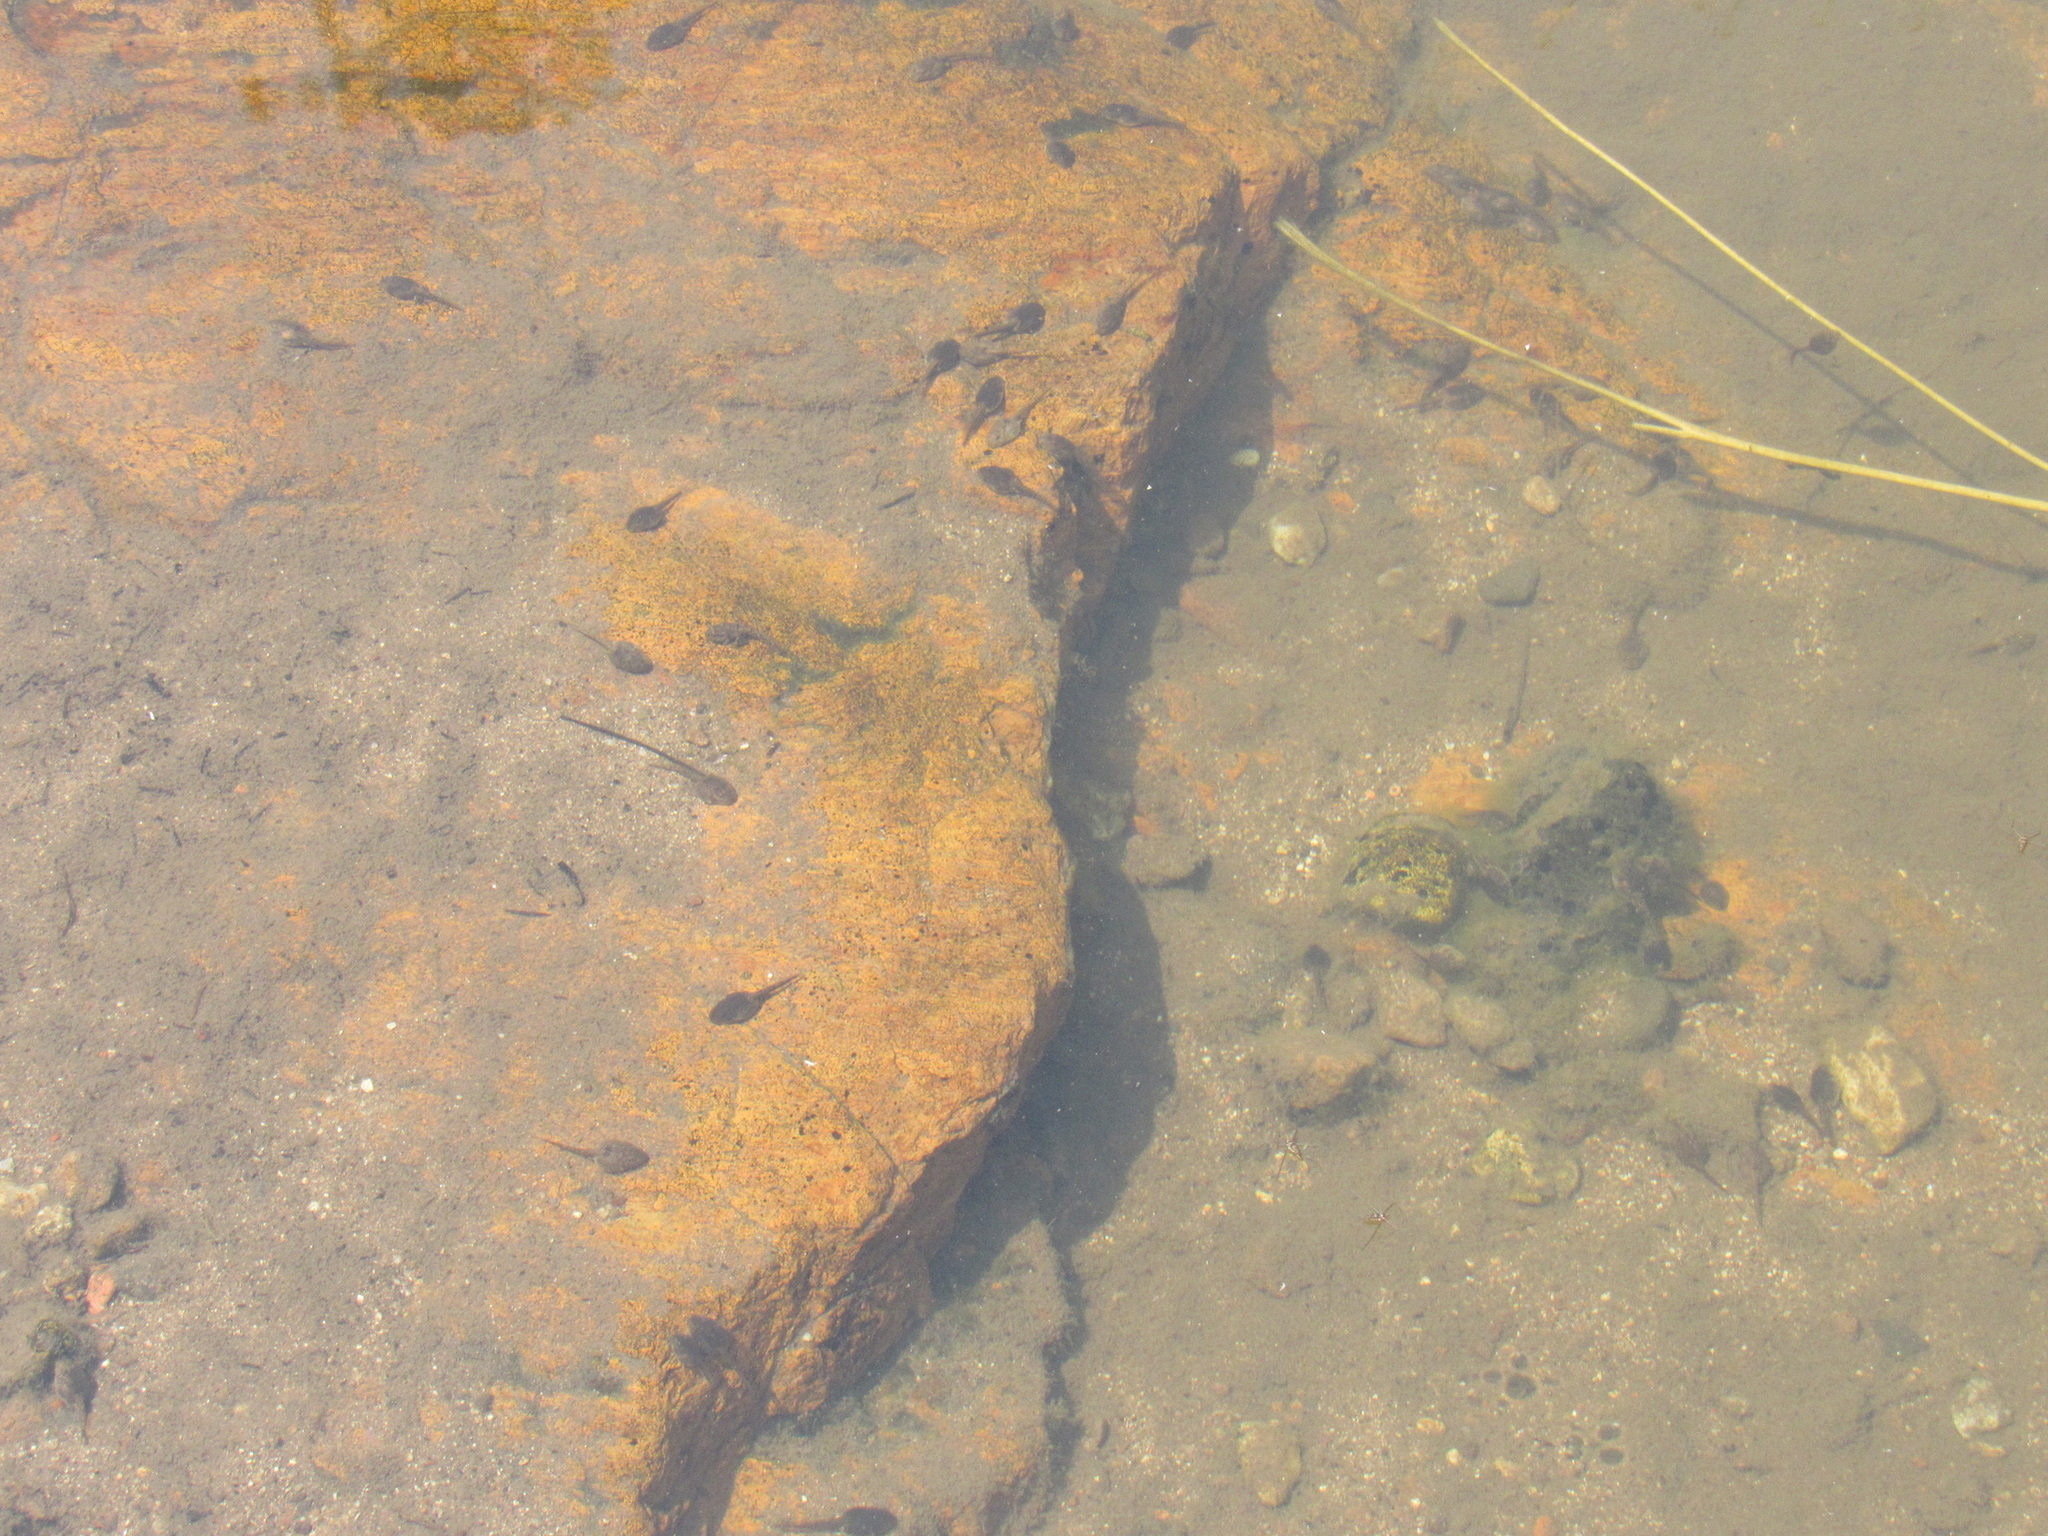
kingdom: Animalia
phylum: Chordata
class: Amphibia
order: Anura
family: Ranidae
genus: Lithobates
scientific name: Lithobates catesbeianus
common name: American bullfrog
